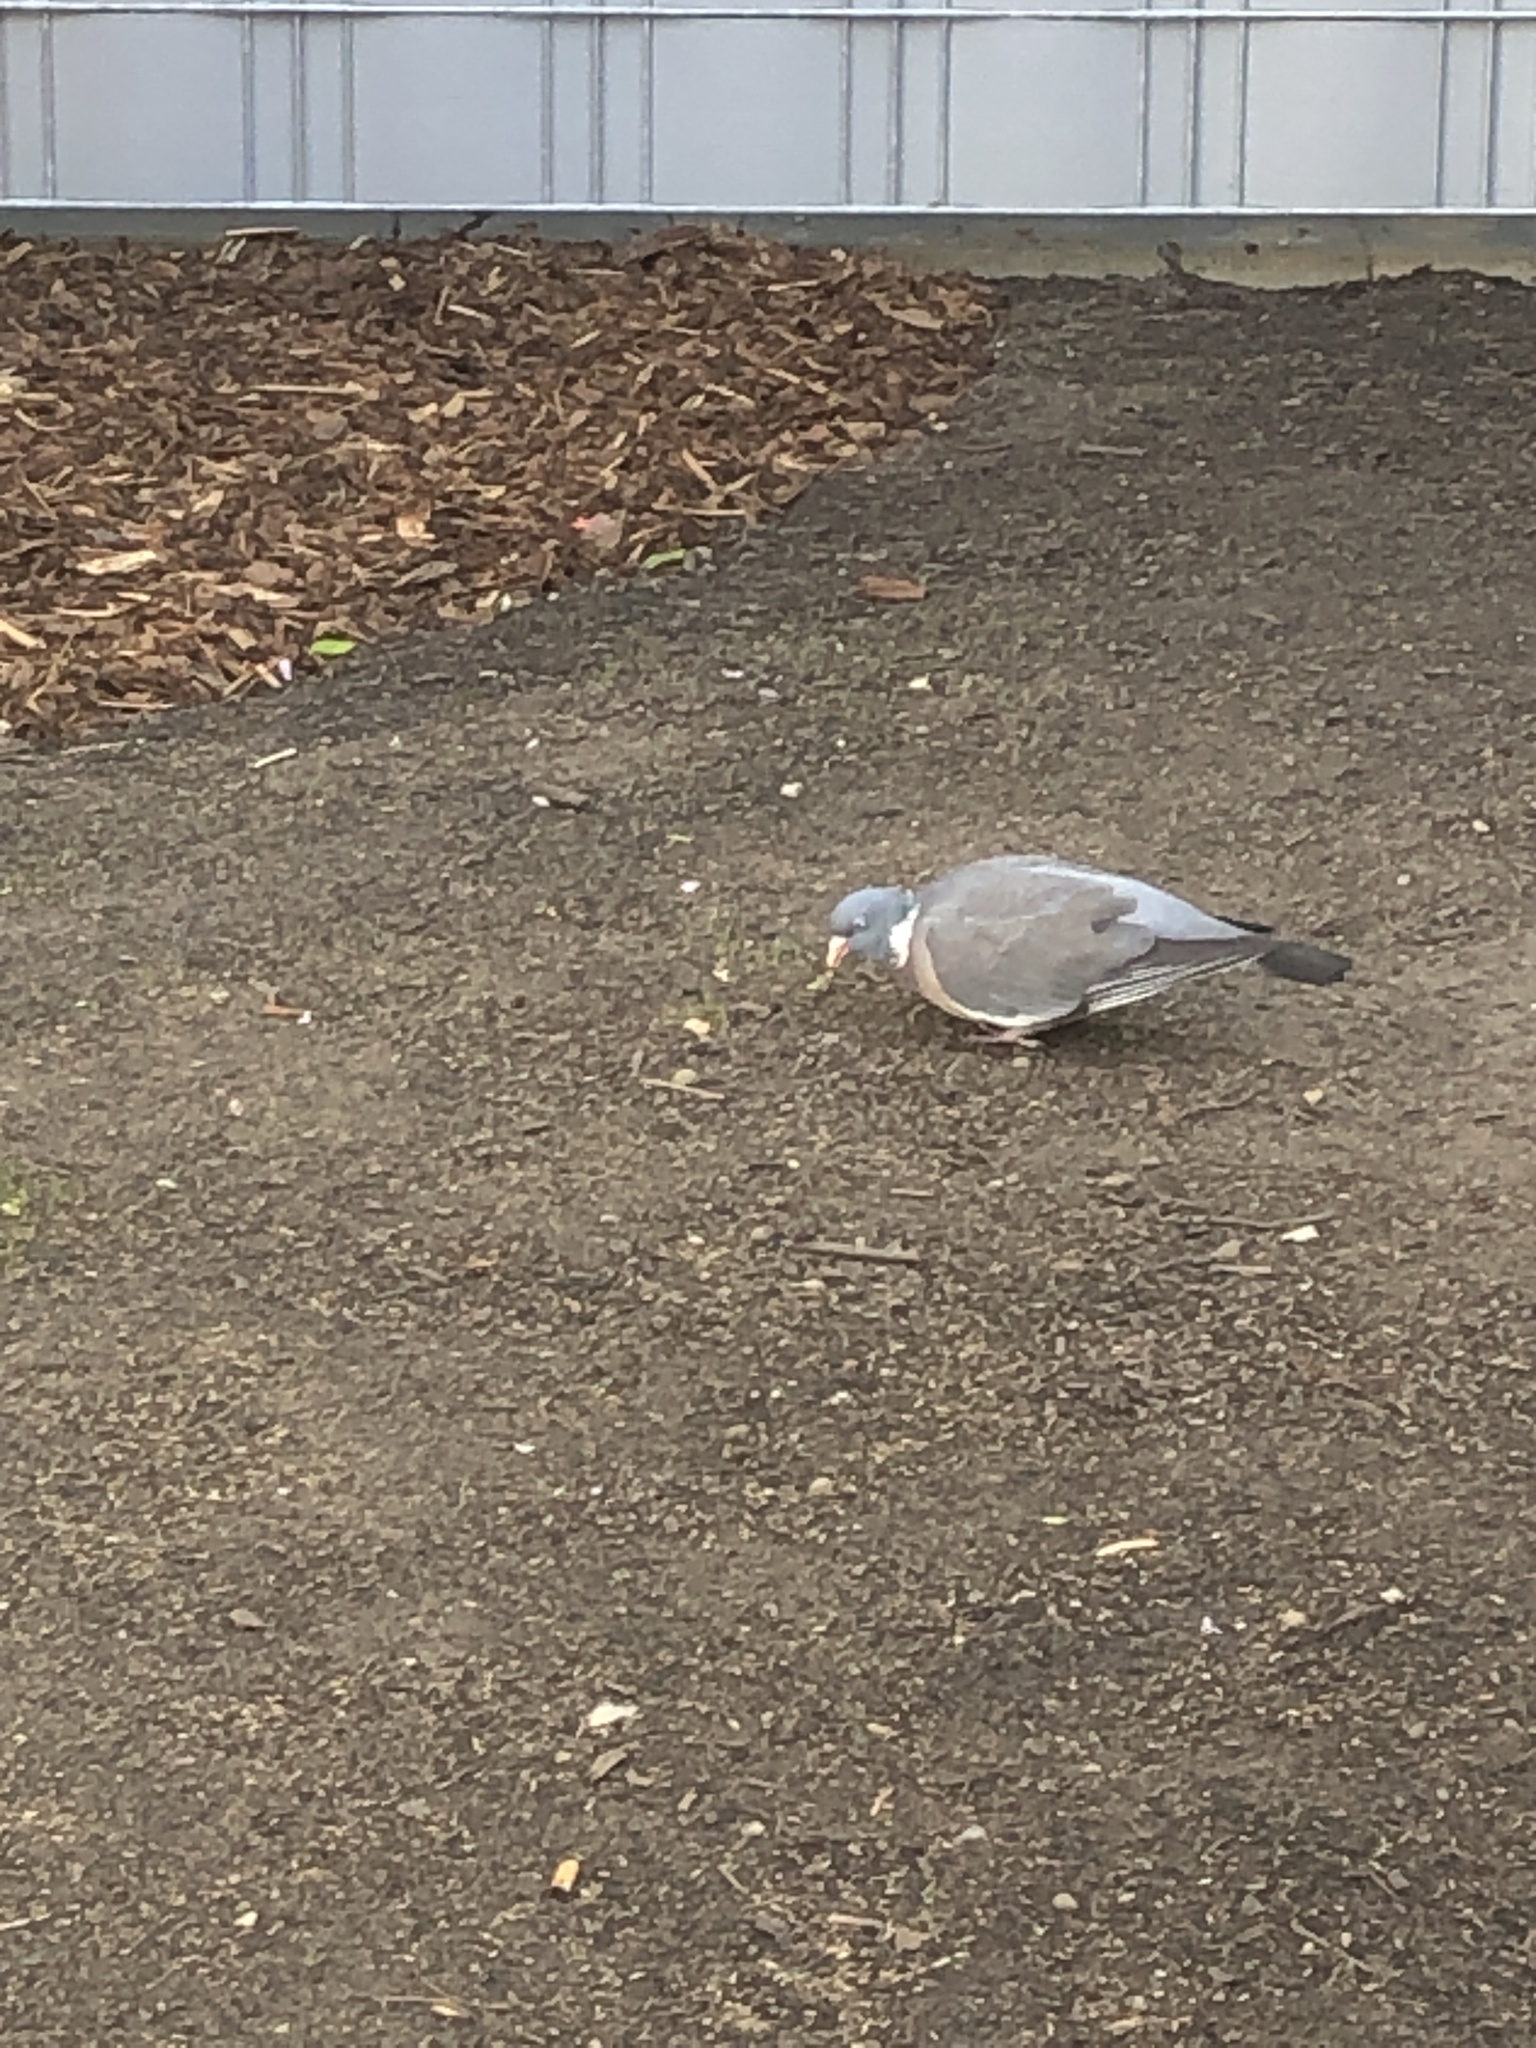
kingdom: Animalia
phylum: Chordata
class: Aves
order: Columbiformes
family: Columbidae
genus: Columba
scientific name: Columba palumbus
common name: Common wood pigeon
